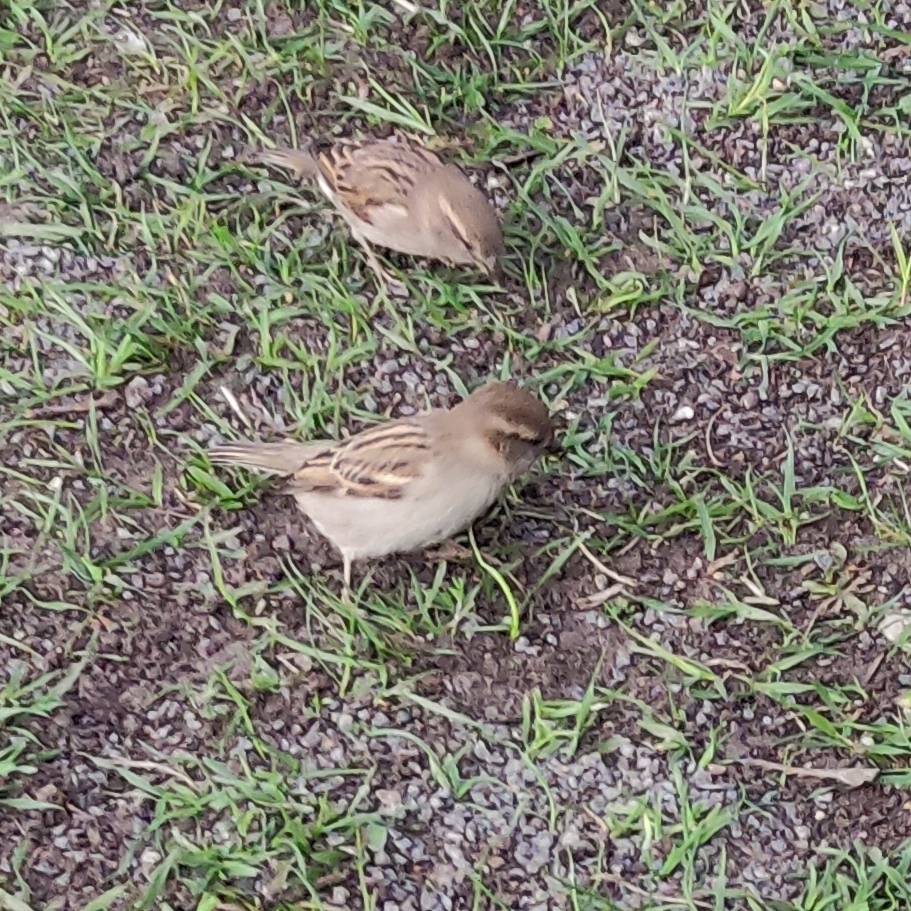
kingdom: Animalia
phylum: Chordata
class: Aves
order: Passeriformes
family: Passeridae
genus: Passer
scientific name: Passer domesticus
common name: House sparrow
